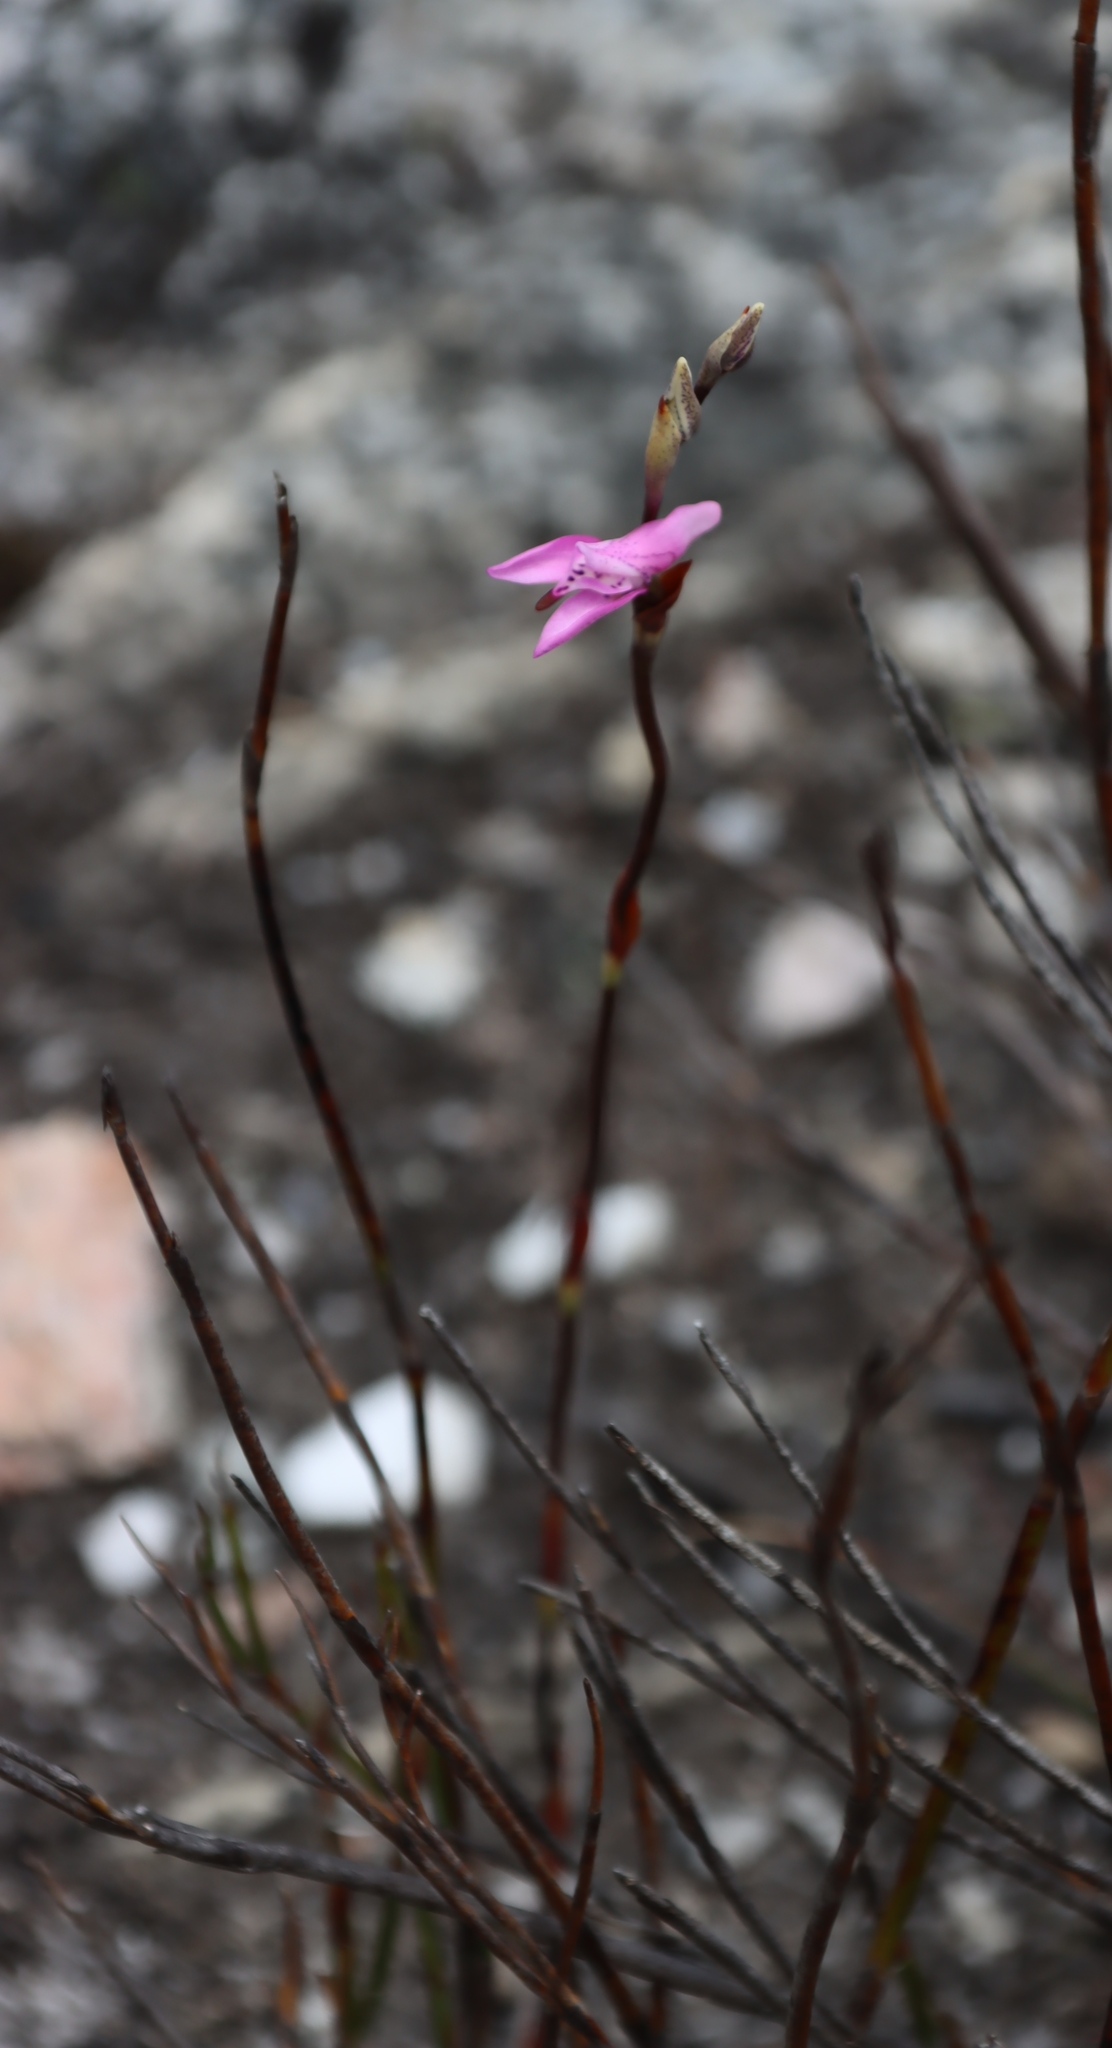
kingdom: Plantae
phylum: Tracheophyta
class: Liliopsida
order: Asparagales
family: Orchidaceae
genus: Disa
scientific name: Disa inflexa
